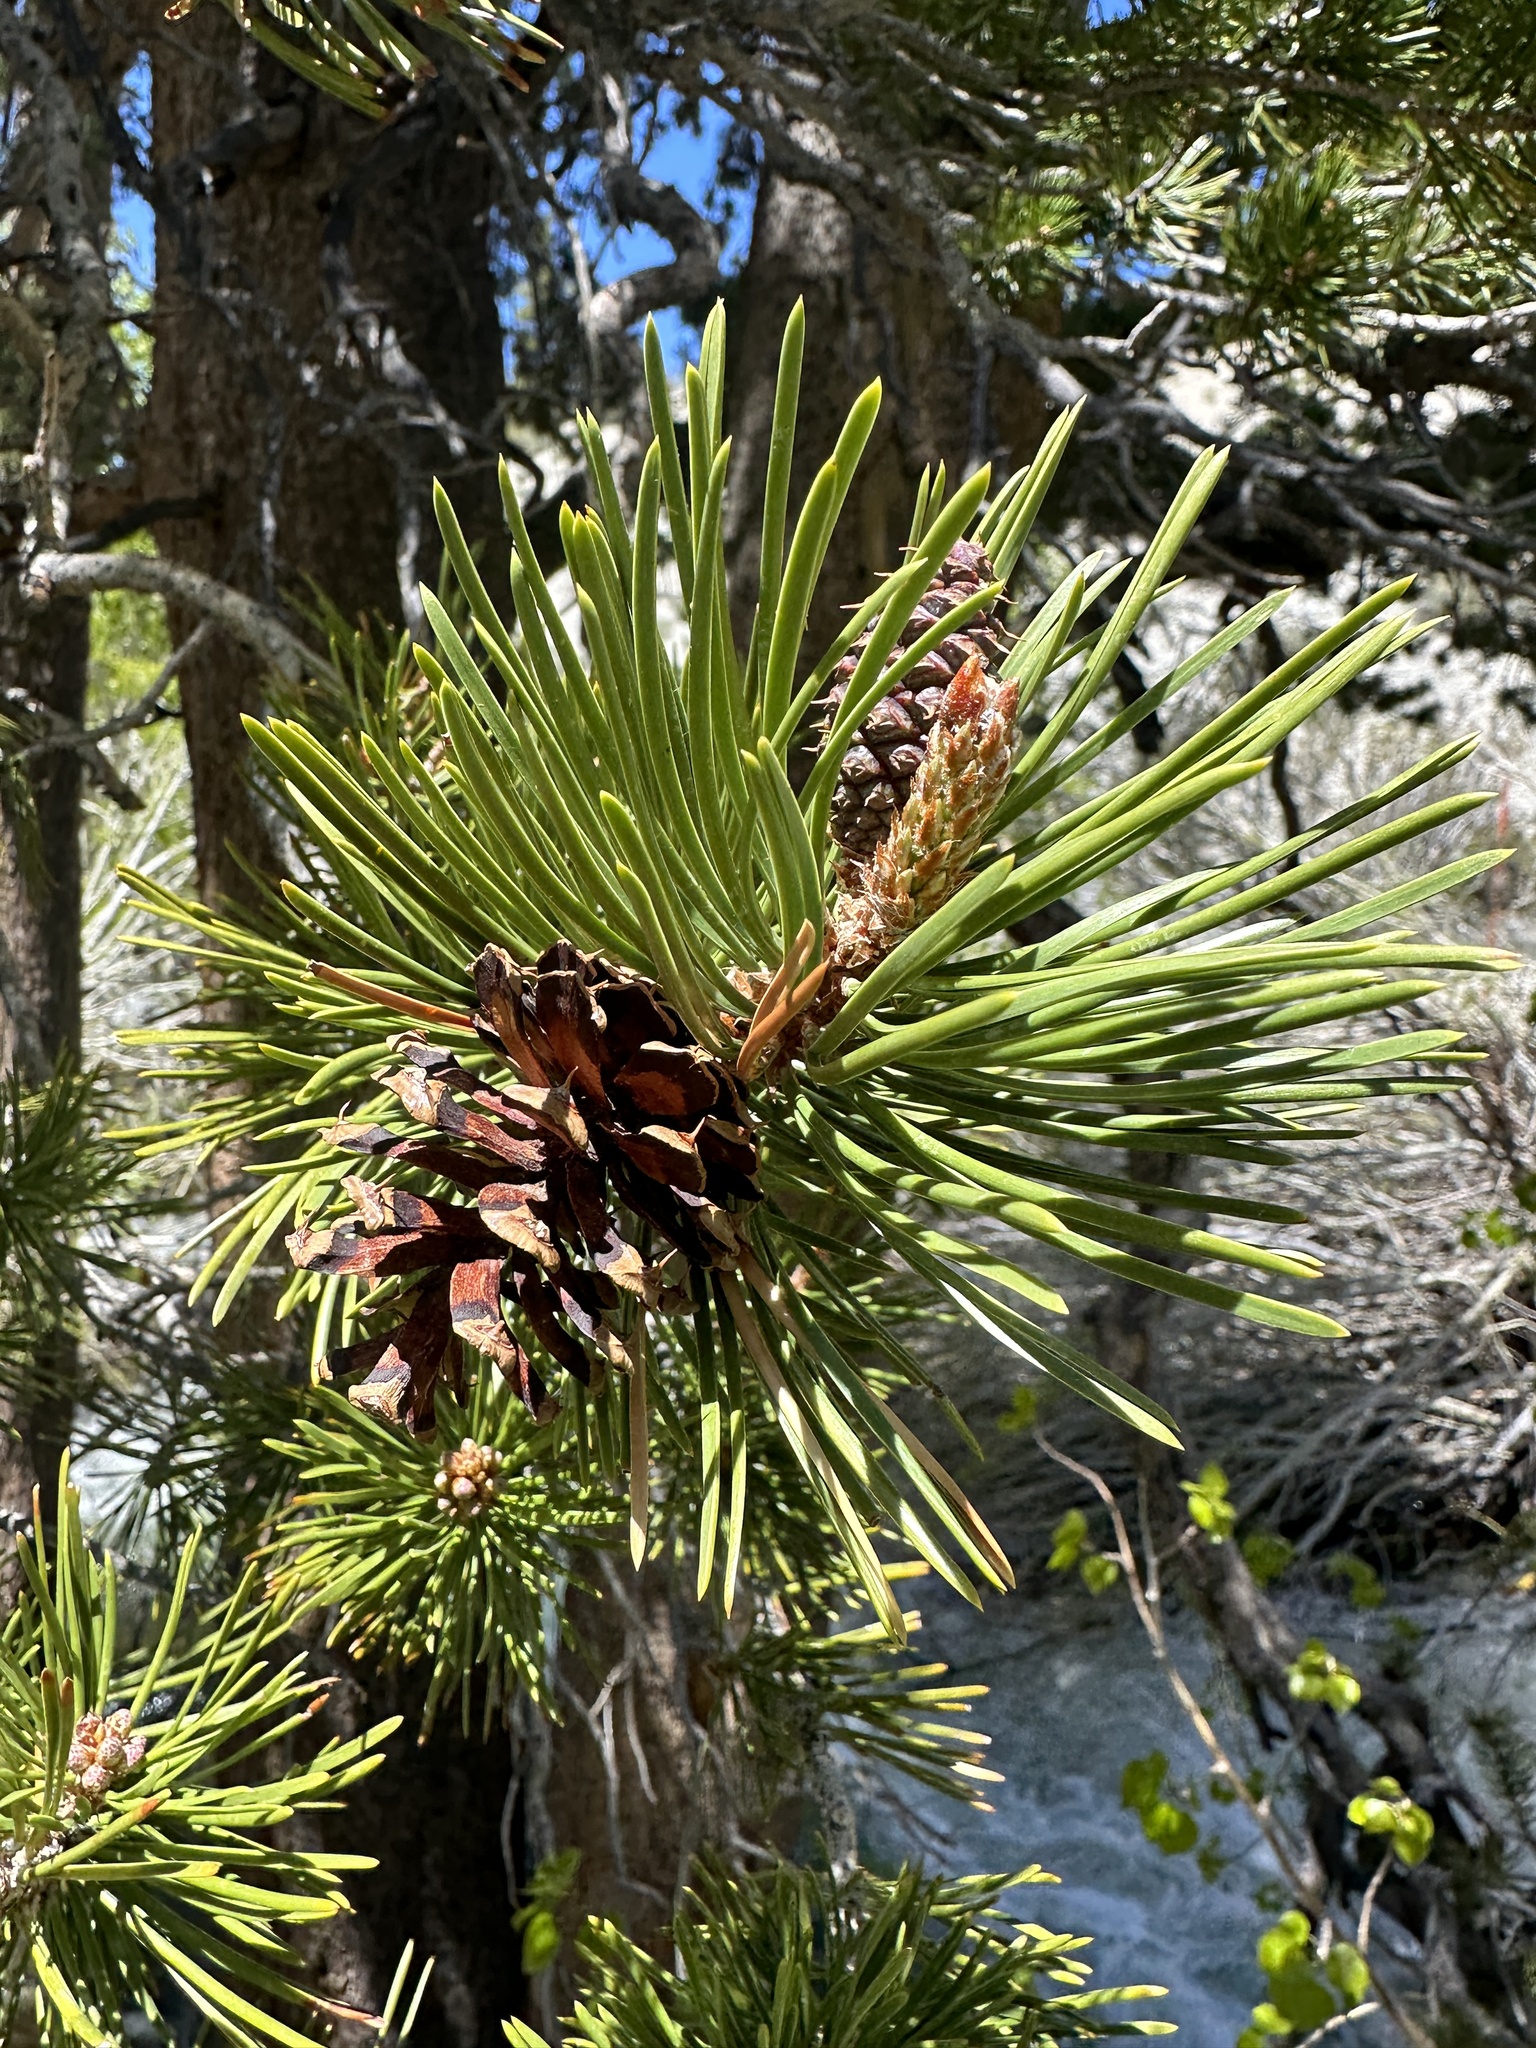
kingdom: Plantae
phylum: Tracheophyta
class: Pinopsida
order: Pinales
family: Pinaceae
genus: Pinus
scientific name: Pinus contorta
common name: Lodgepole pine
